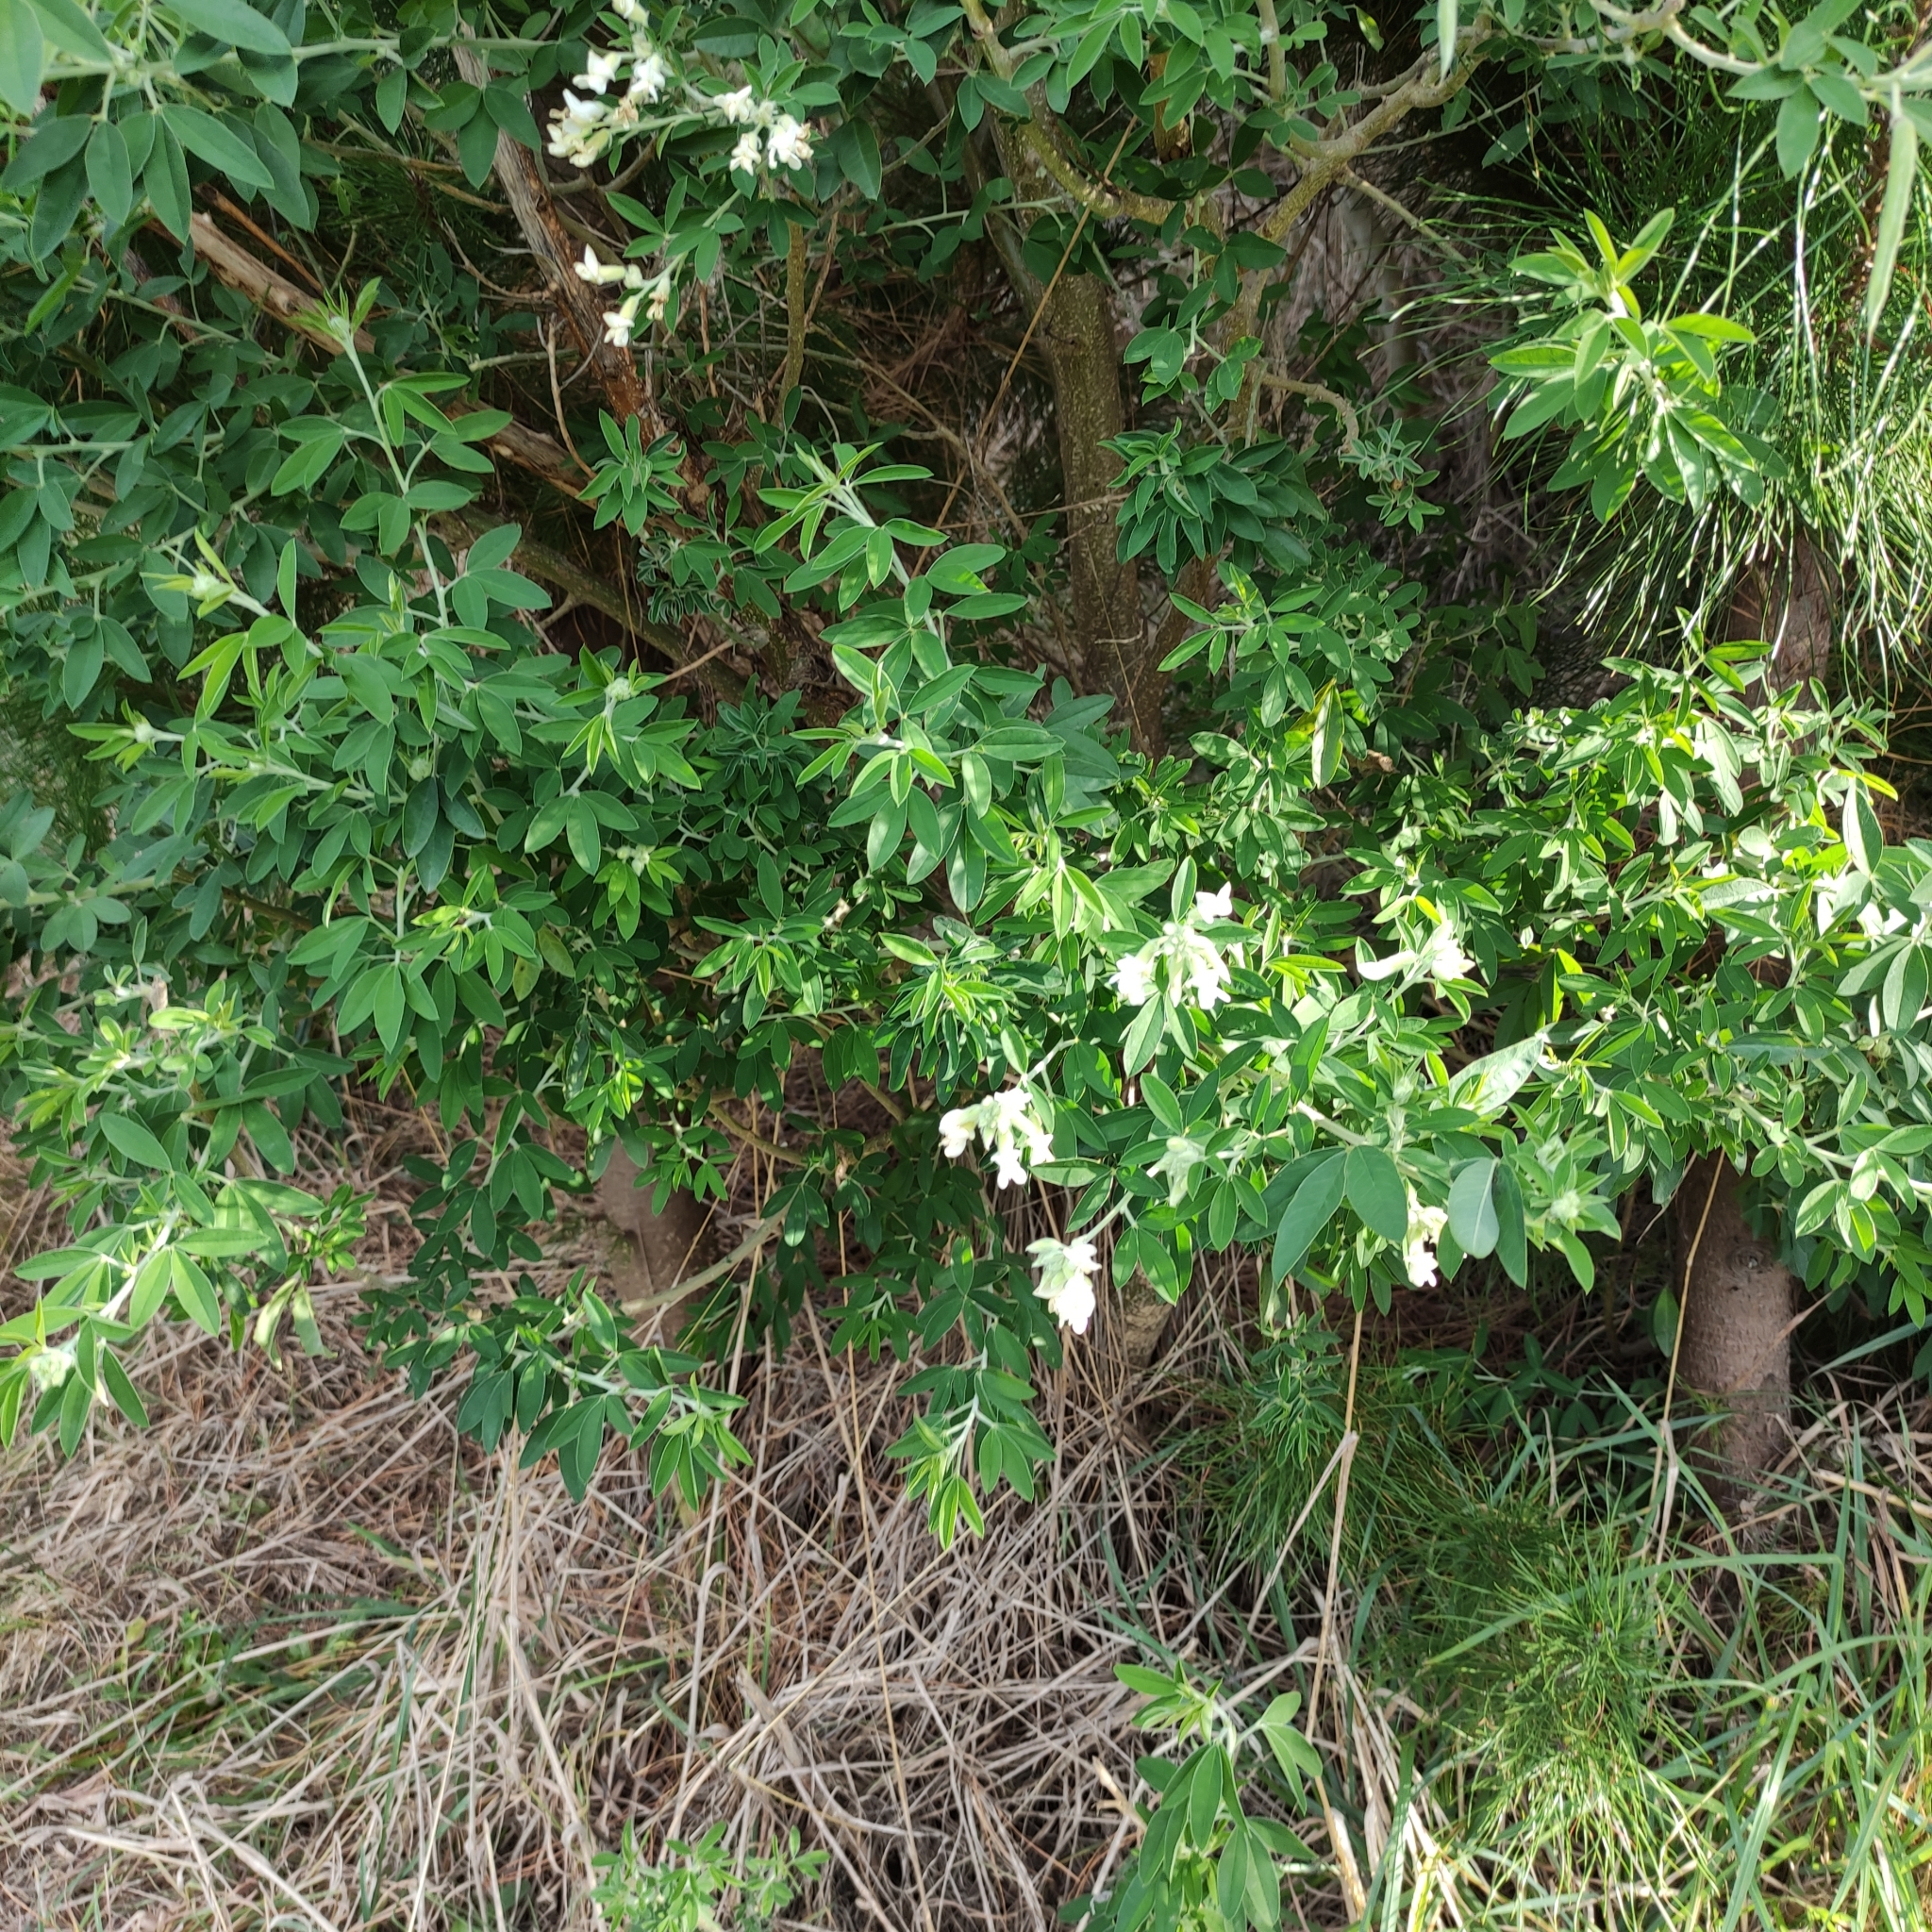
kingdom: Plantae
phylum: Tracheophyta
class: Magnoliopsida
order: Fabales
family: Fabaceae
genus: Chamaecytisus
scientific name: Chamaecytisus prolifer
